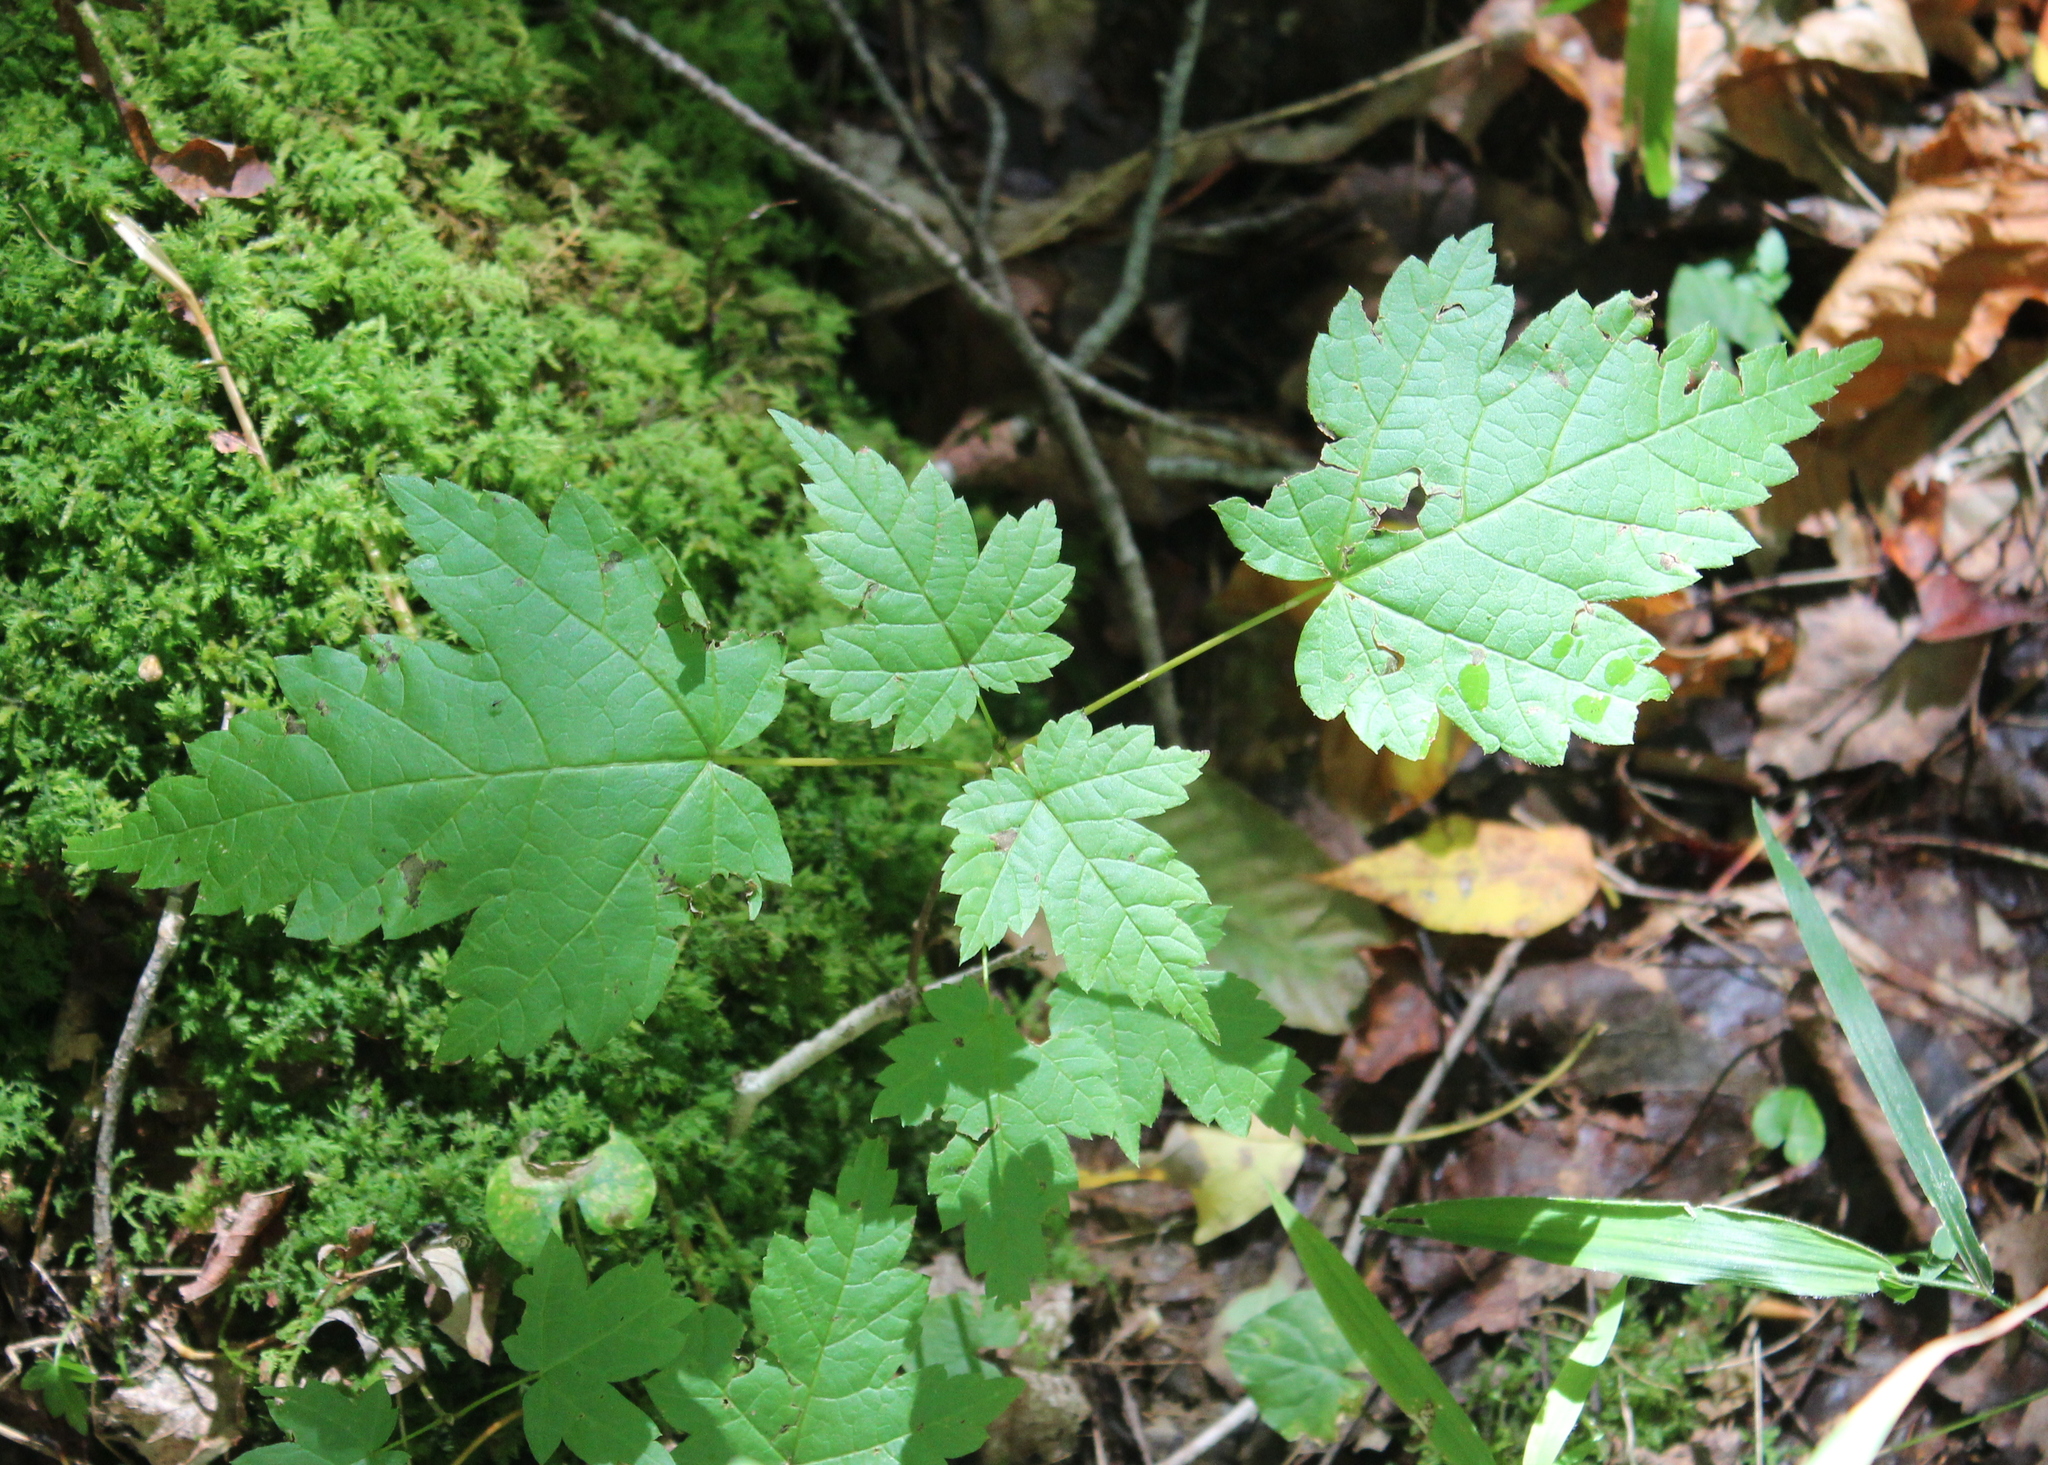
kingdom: Plantae
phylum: Tracheophyta
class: Magnoliopsida
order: Sapindales
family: Sapindaceae
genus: Acer
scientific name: Acer spicatum
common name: Mountain maple
